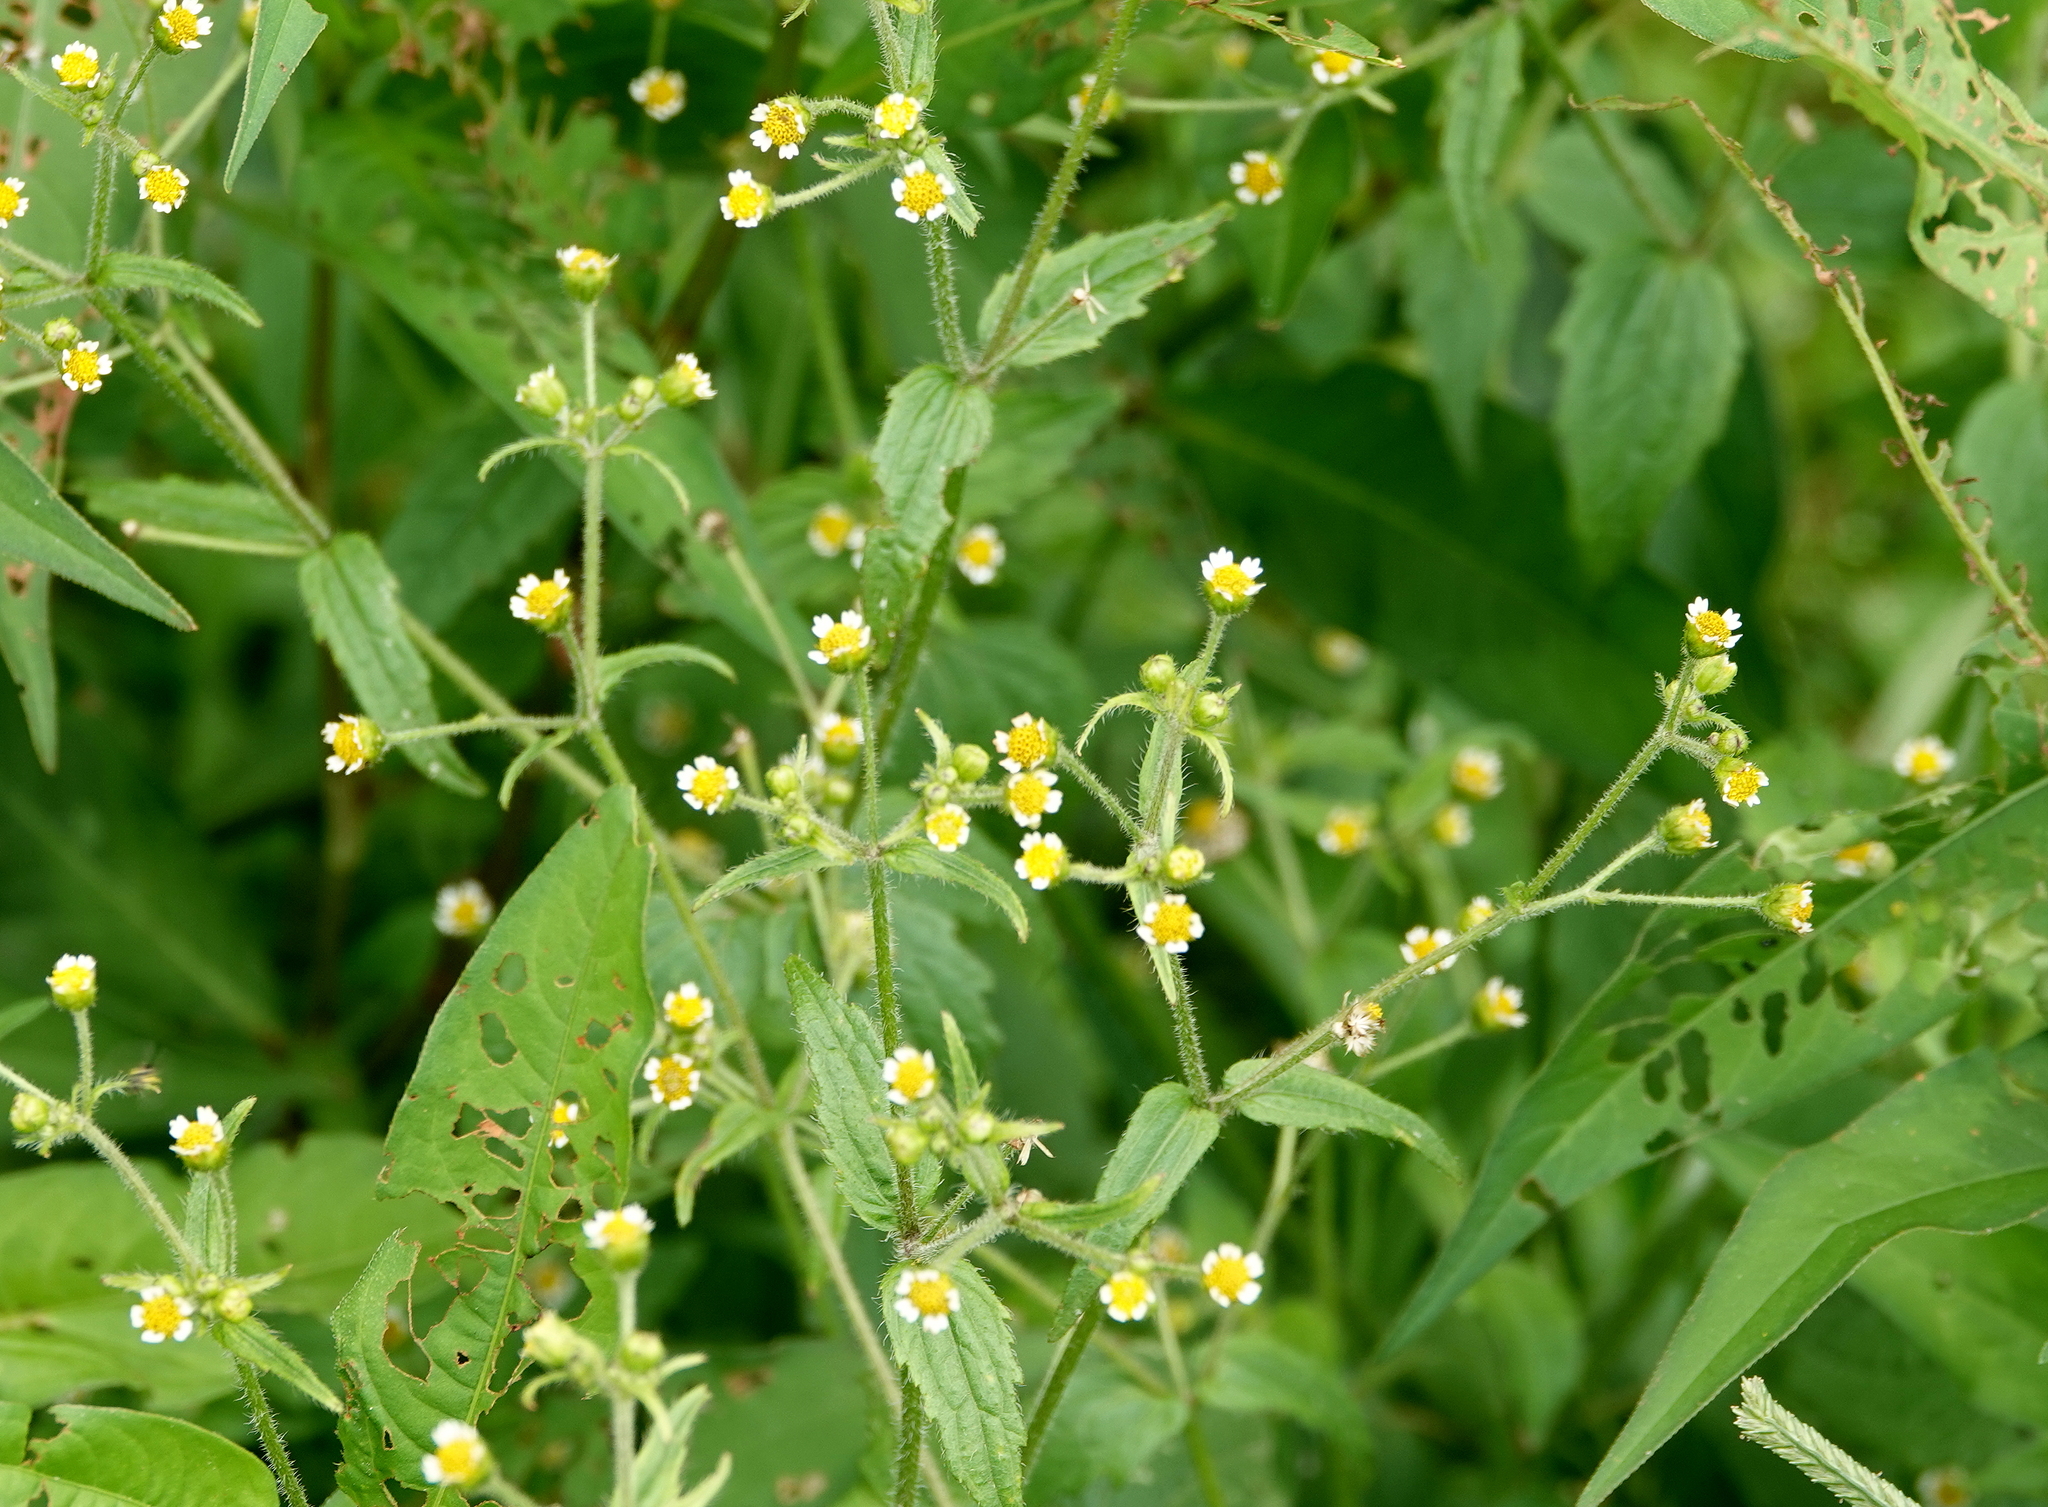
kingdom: Plantae
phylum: Tracheophyta
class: Magnoliopsida
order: Asterales
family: Asteraceae
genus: Galinsoga
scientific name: Galinsoga quadriradiata
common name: Shaggy soldier
